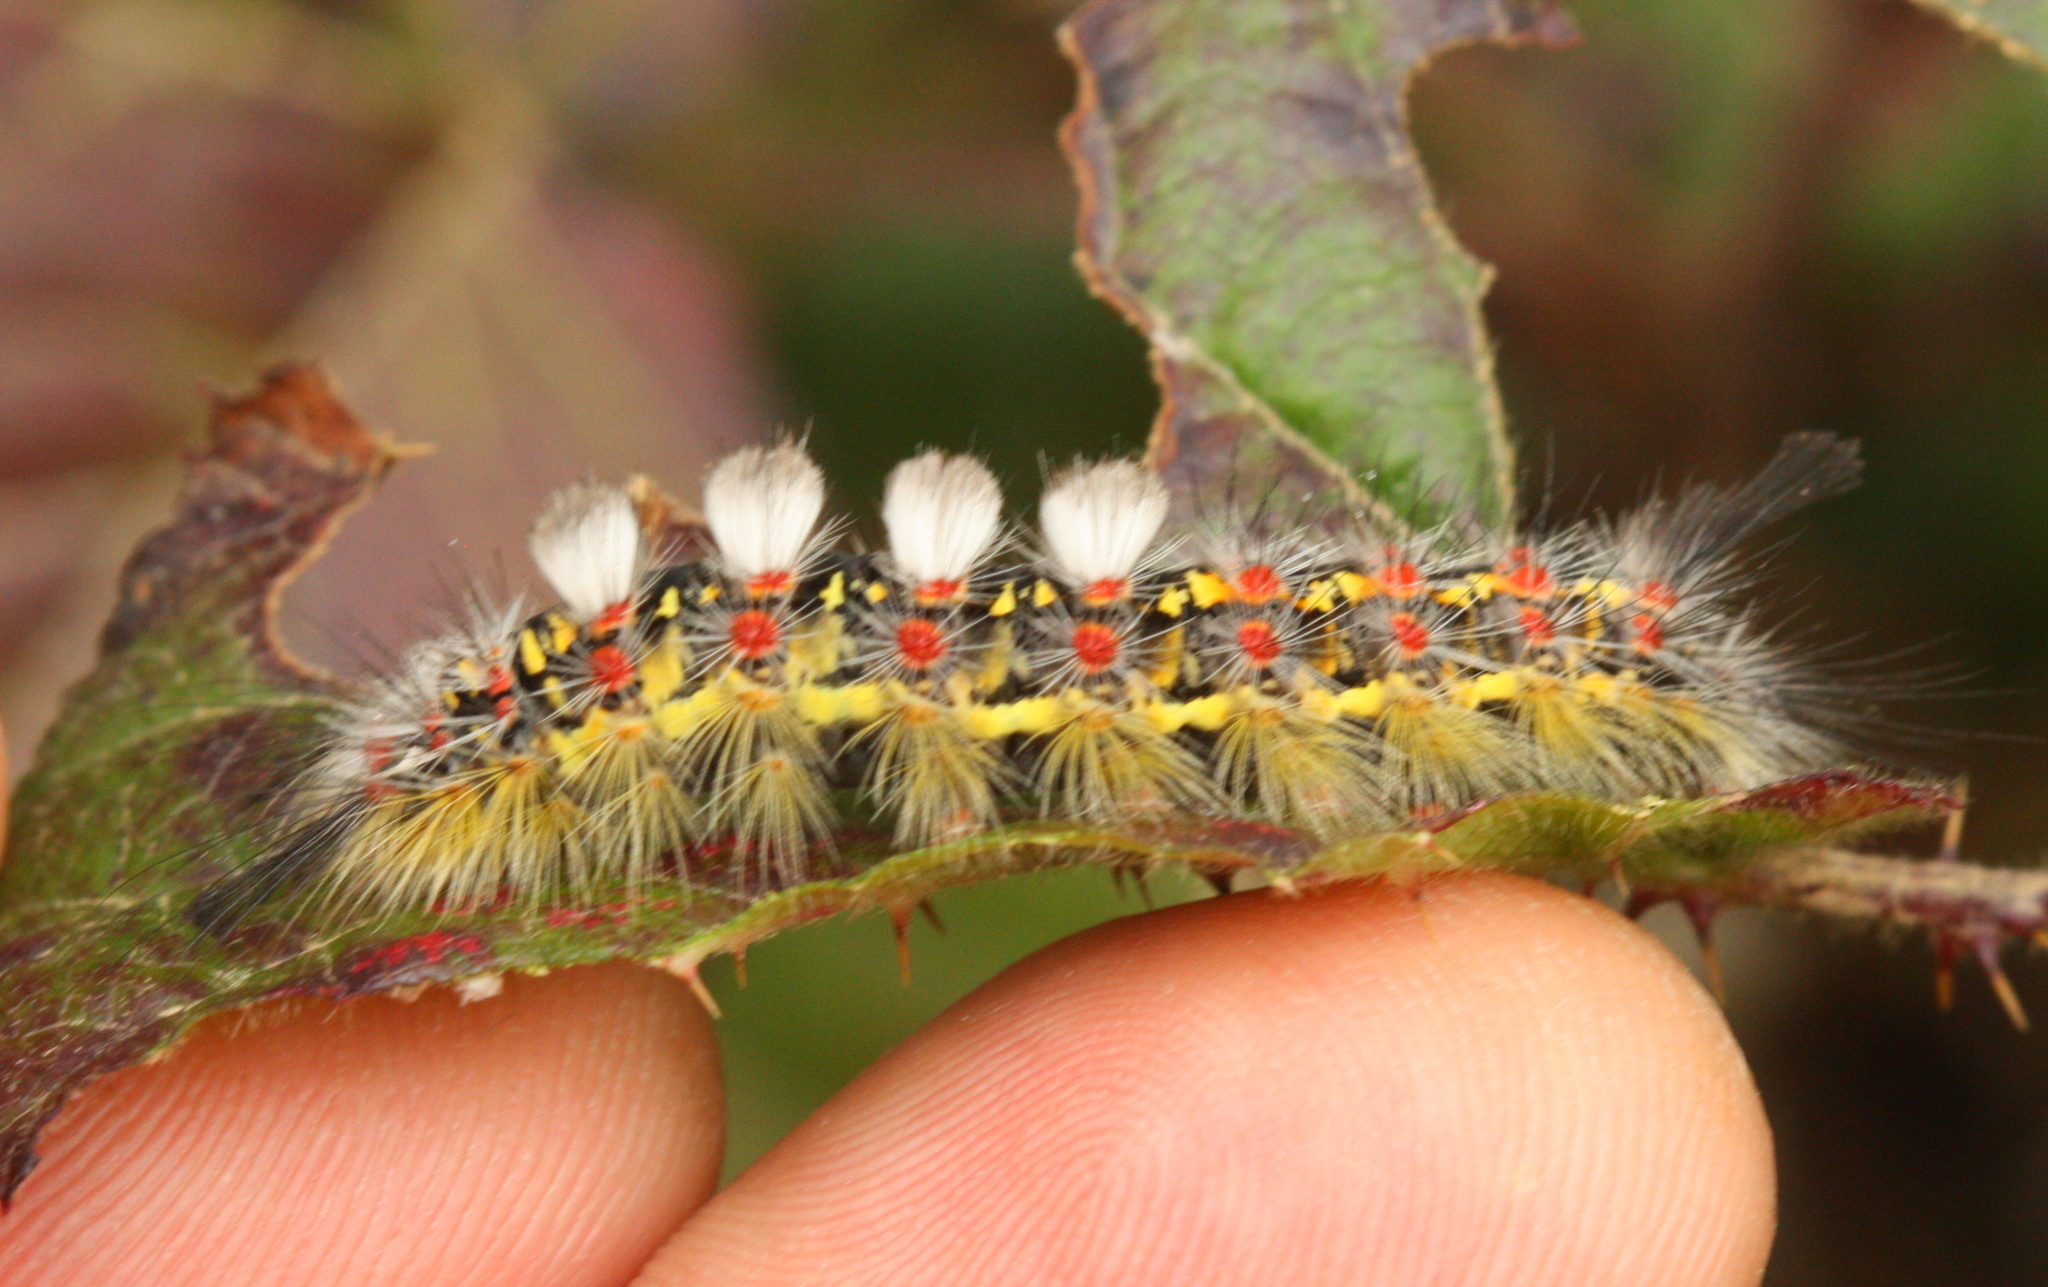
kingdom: Animalia
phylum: Arthropoda
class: Insecta
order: Lepidoptera
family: Erebidae
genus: Orgyia
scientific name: Orgyia vetusta
